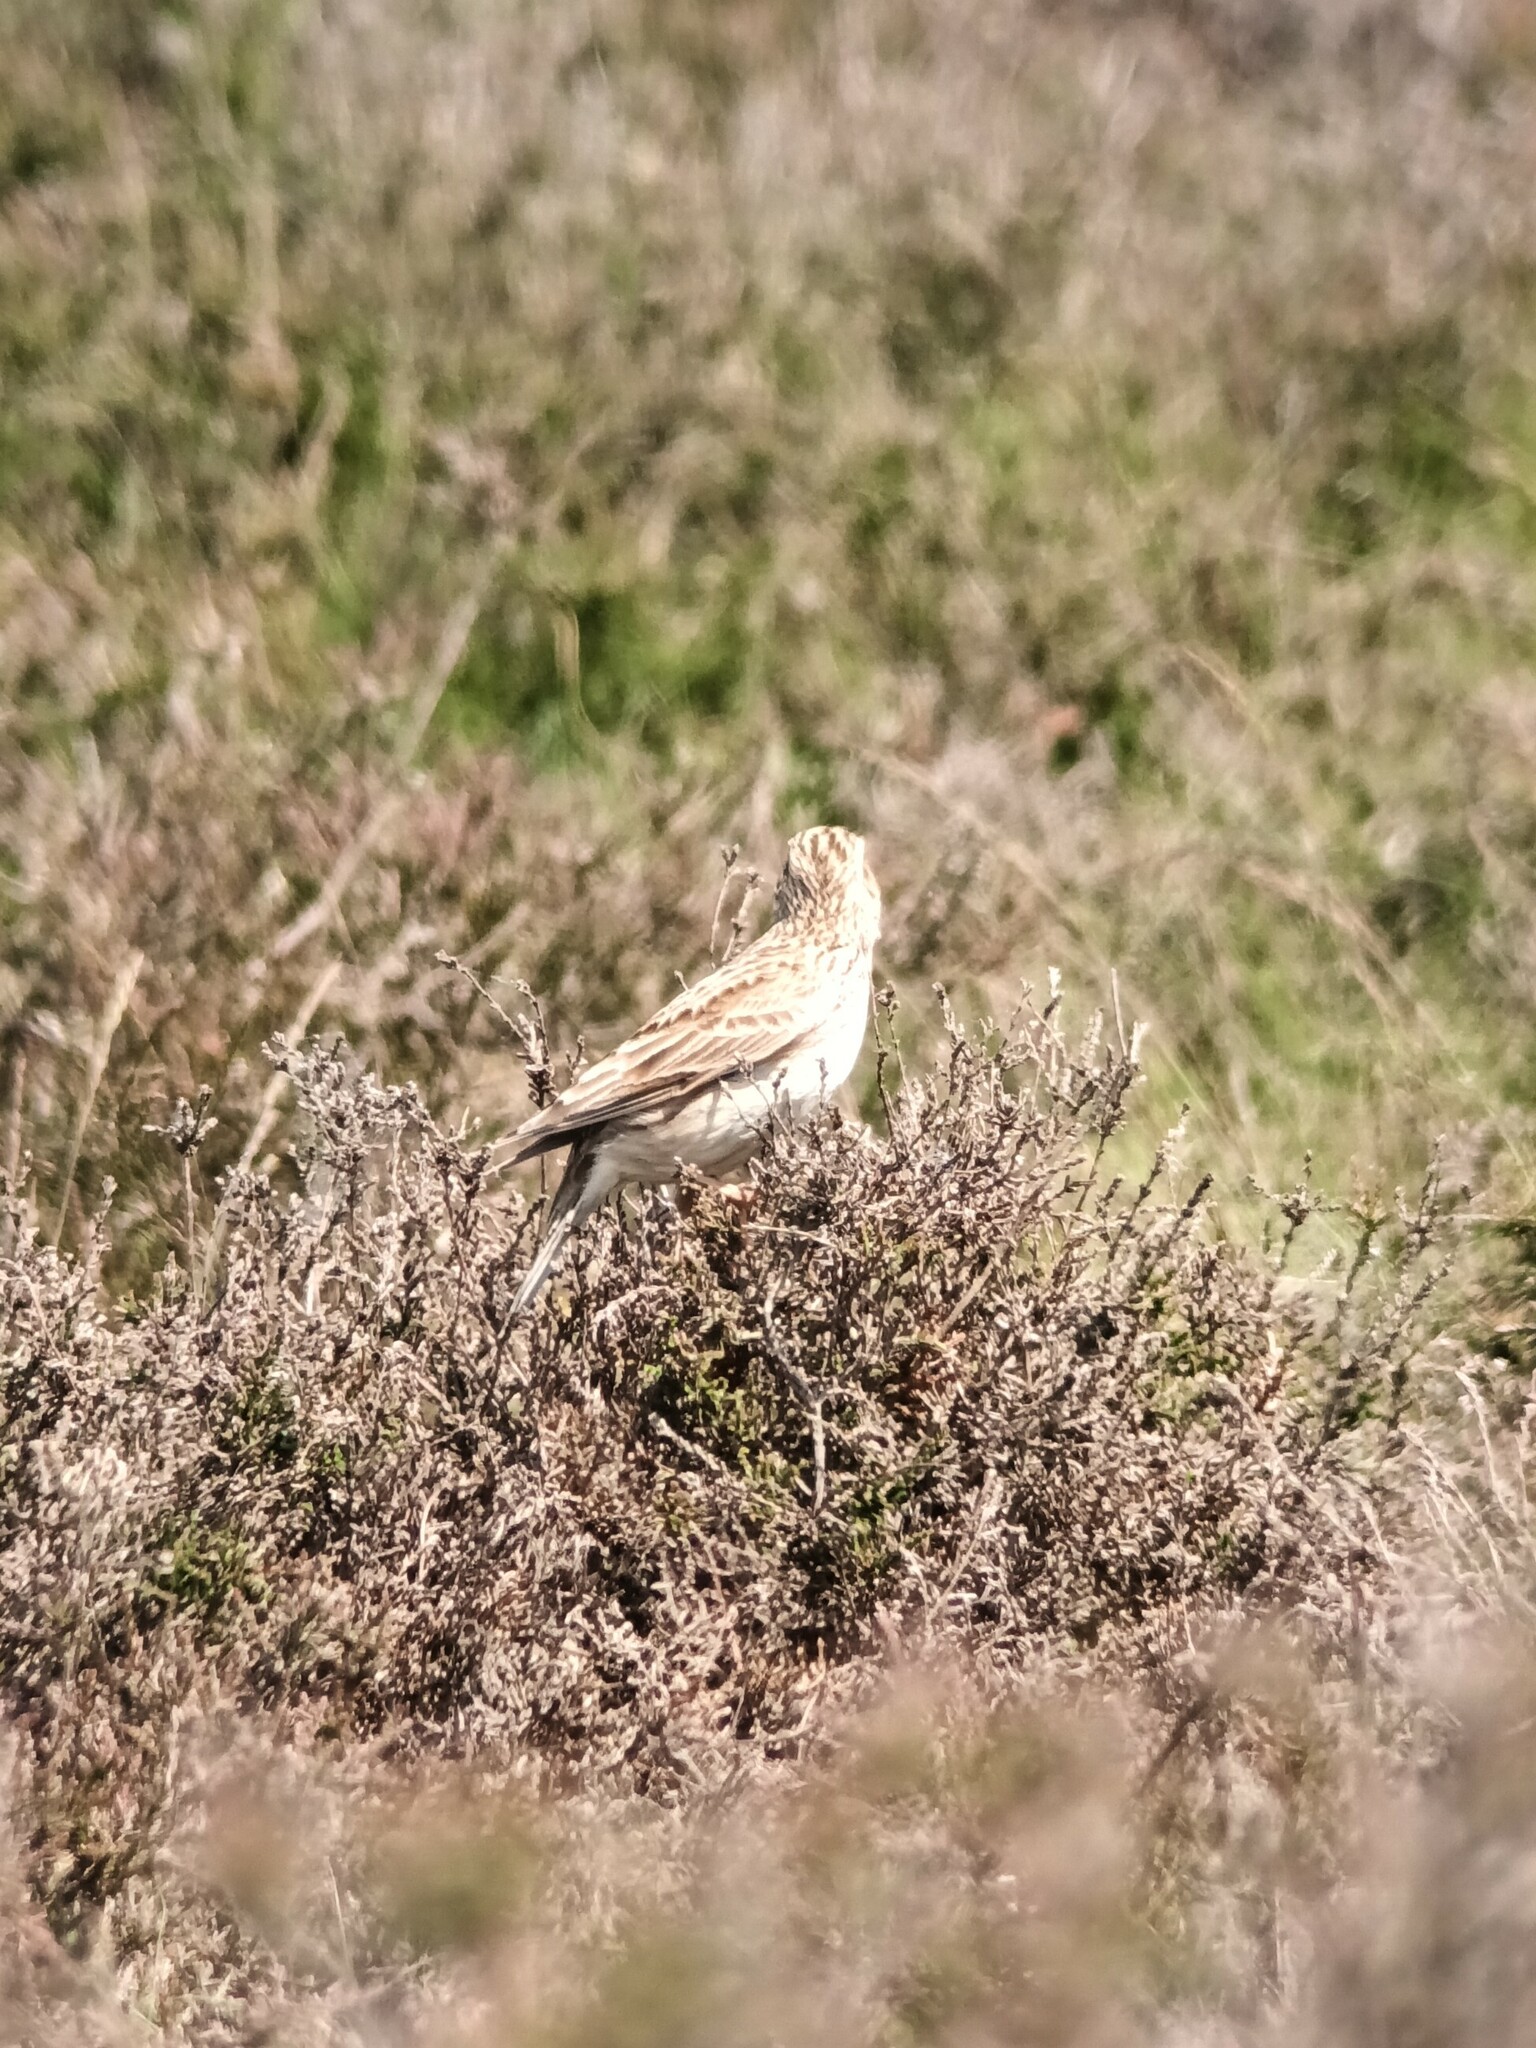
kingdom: Animalia
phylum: Chordata
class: Aves
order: Passeriformes
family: Alaudidae
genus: Alauda
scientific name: Alauda arvensis
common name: Eurasian skylark
